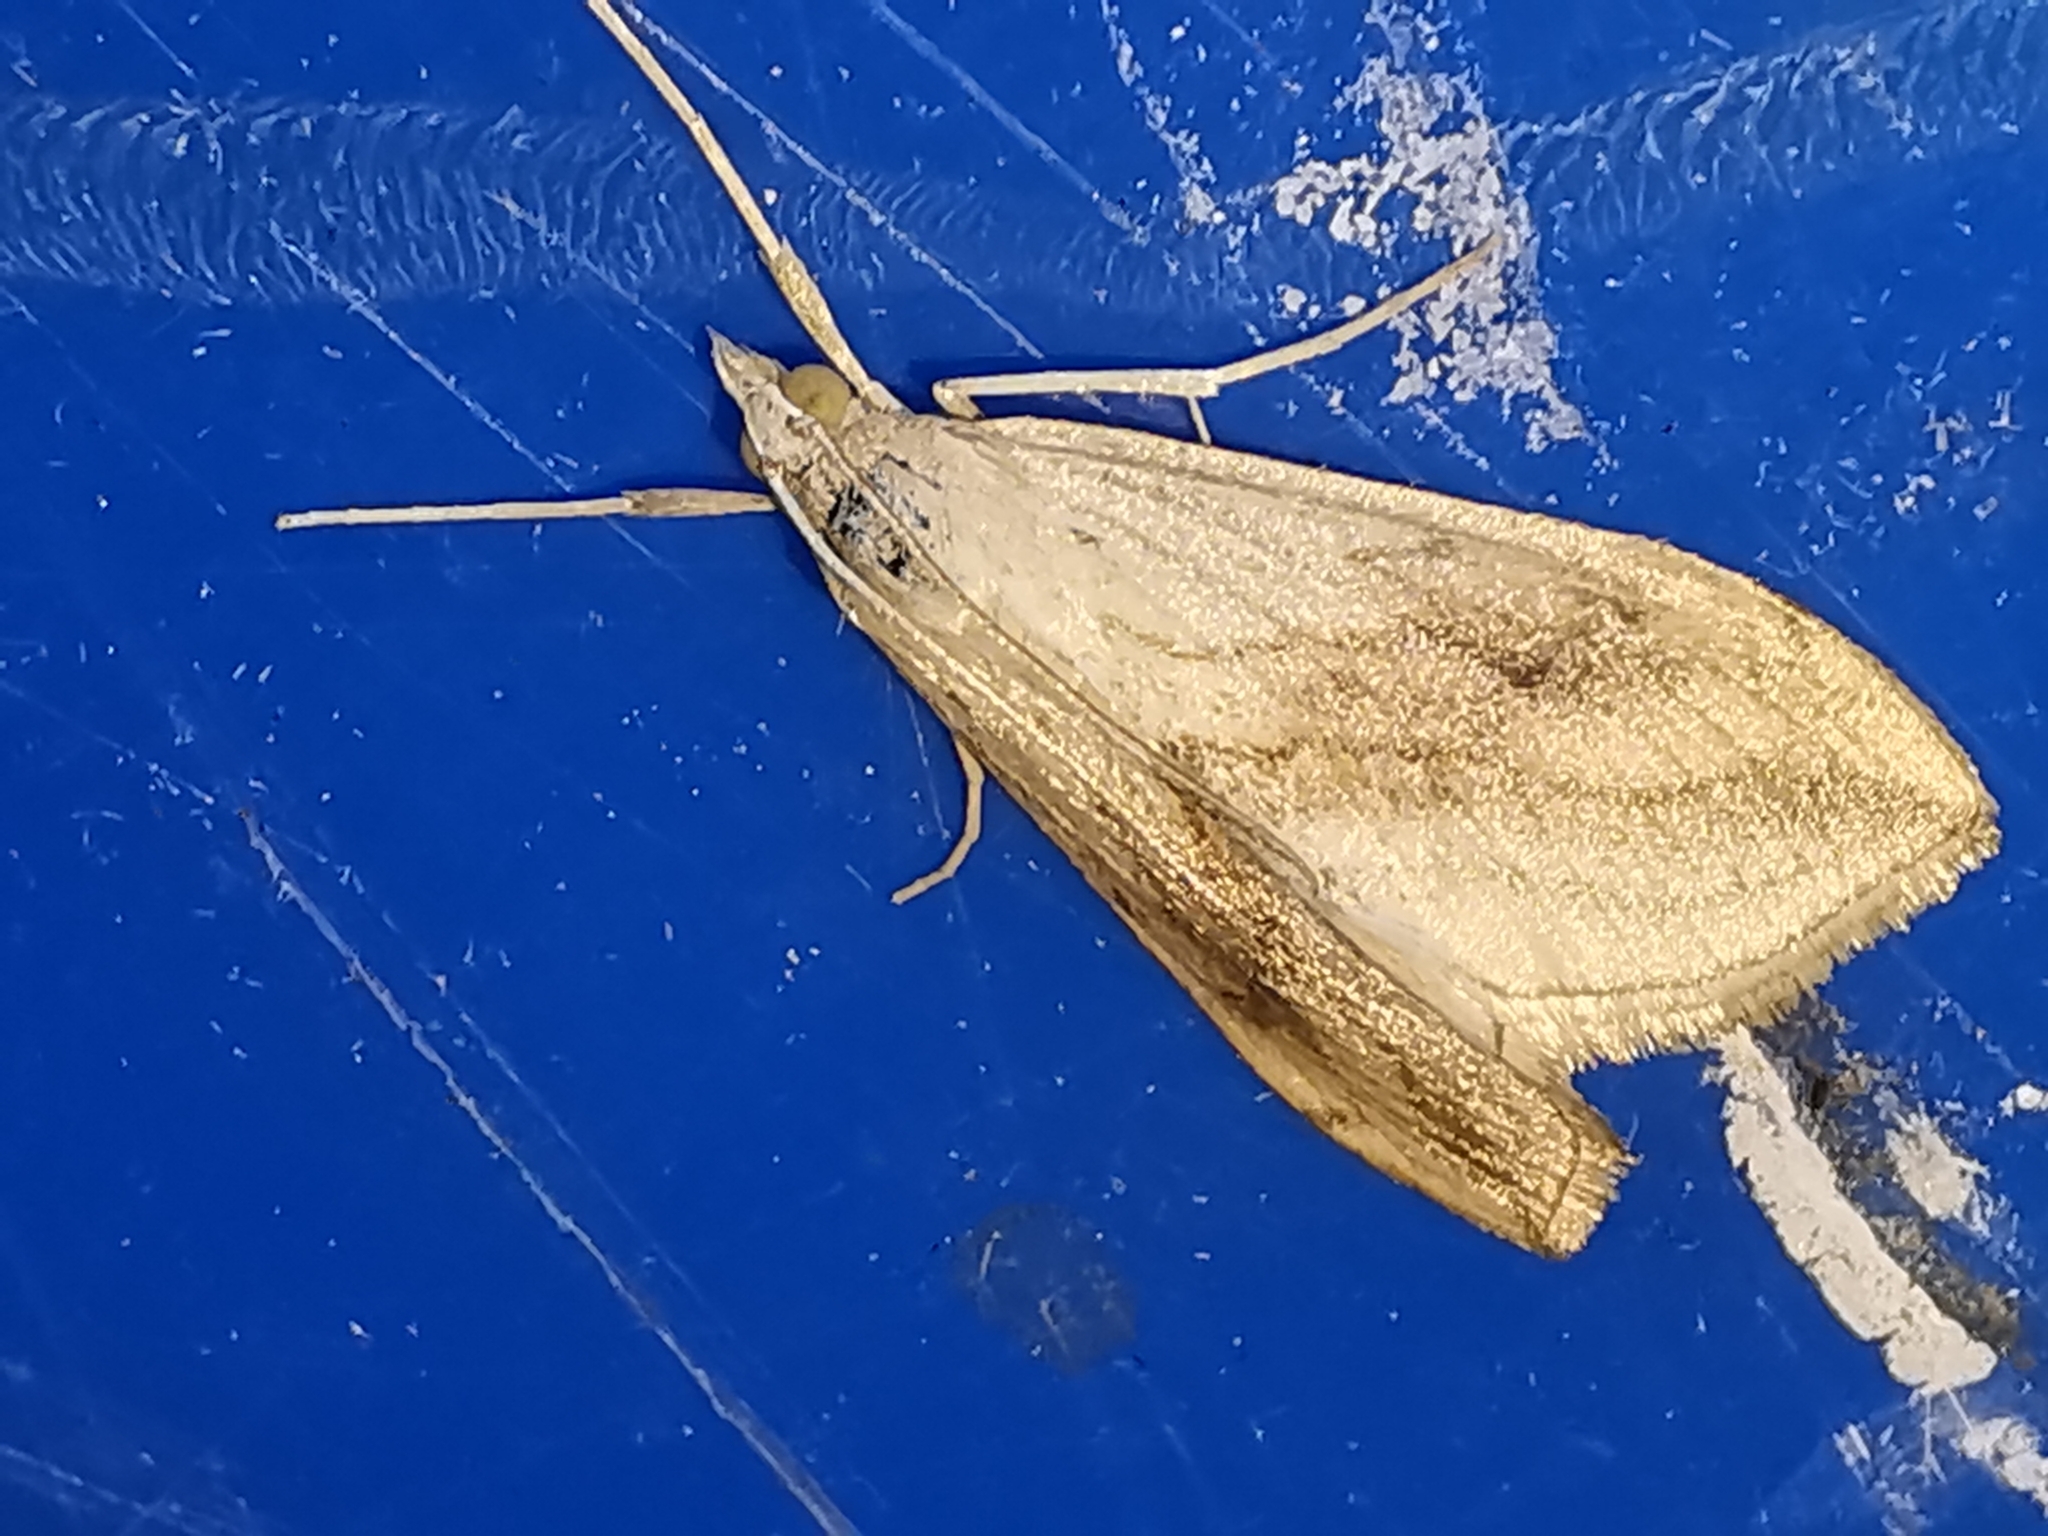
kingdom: Animalia
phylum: Arthropoda
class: Insecta
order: Lepidoptera
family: Crambidae
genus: Evergestis
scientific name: Evergestis forficalis
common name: Garden pebble
